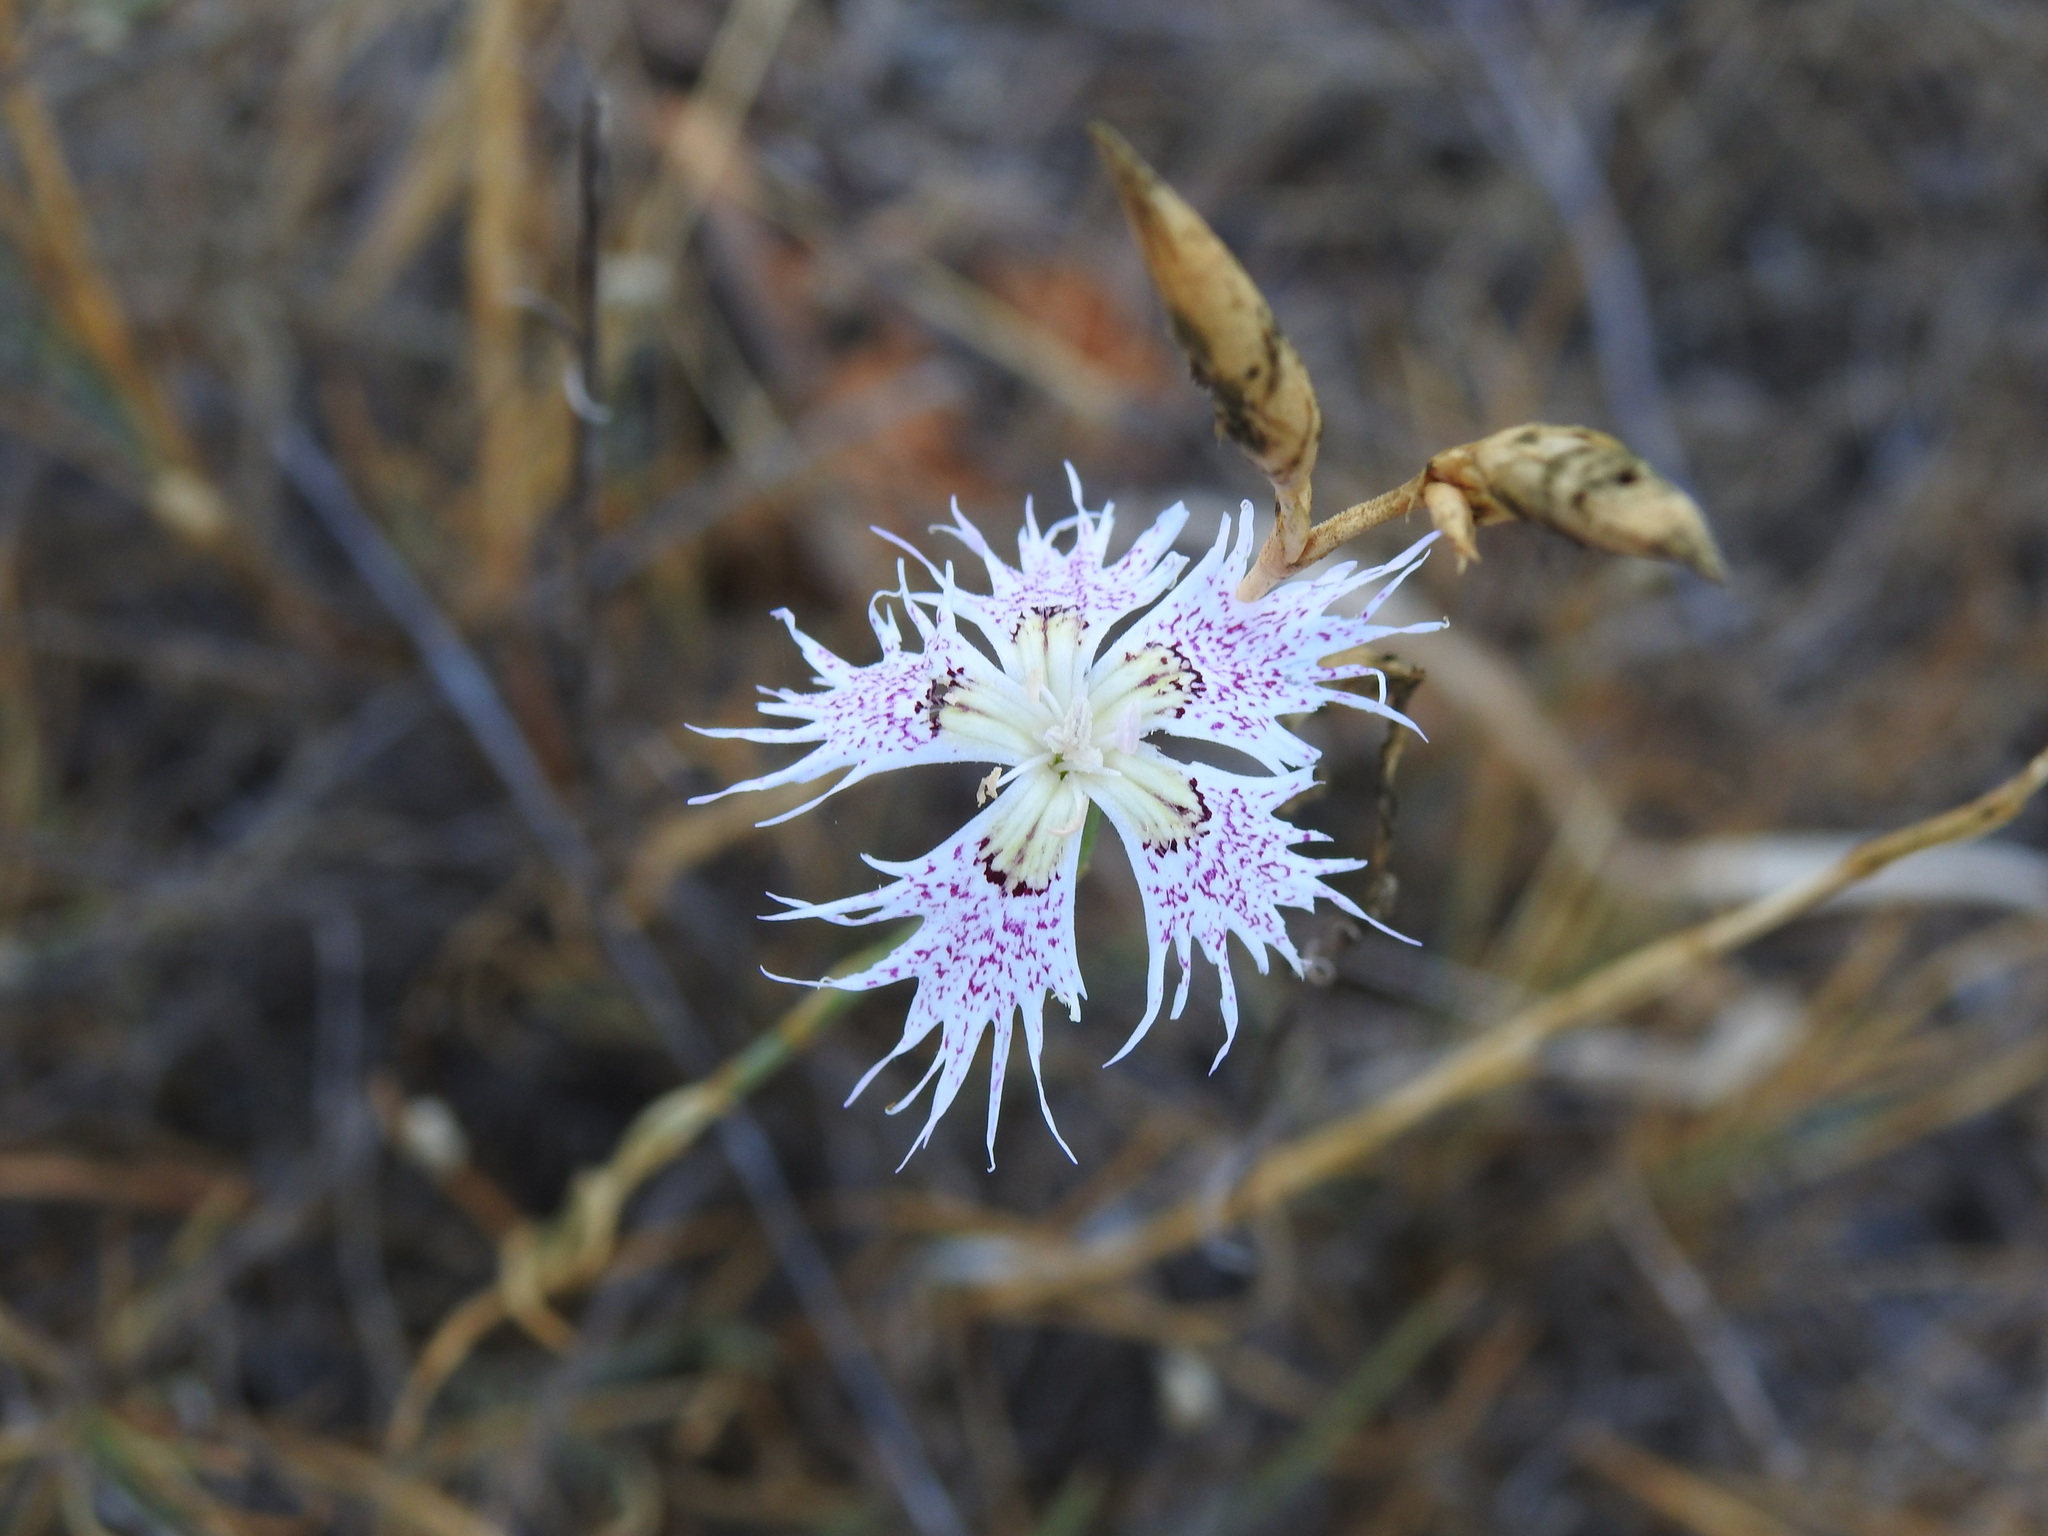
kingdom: Plantae
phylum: Tracheophyta
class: Magnoliopsida
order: Caryophyllales
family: Caryophyllaceae
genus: Dianthus
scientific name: Dianthus broteri
